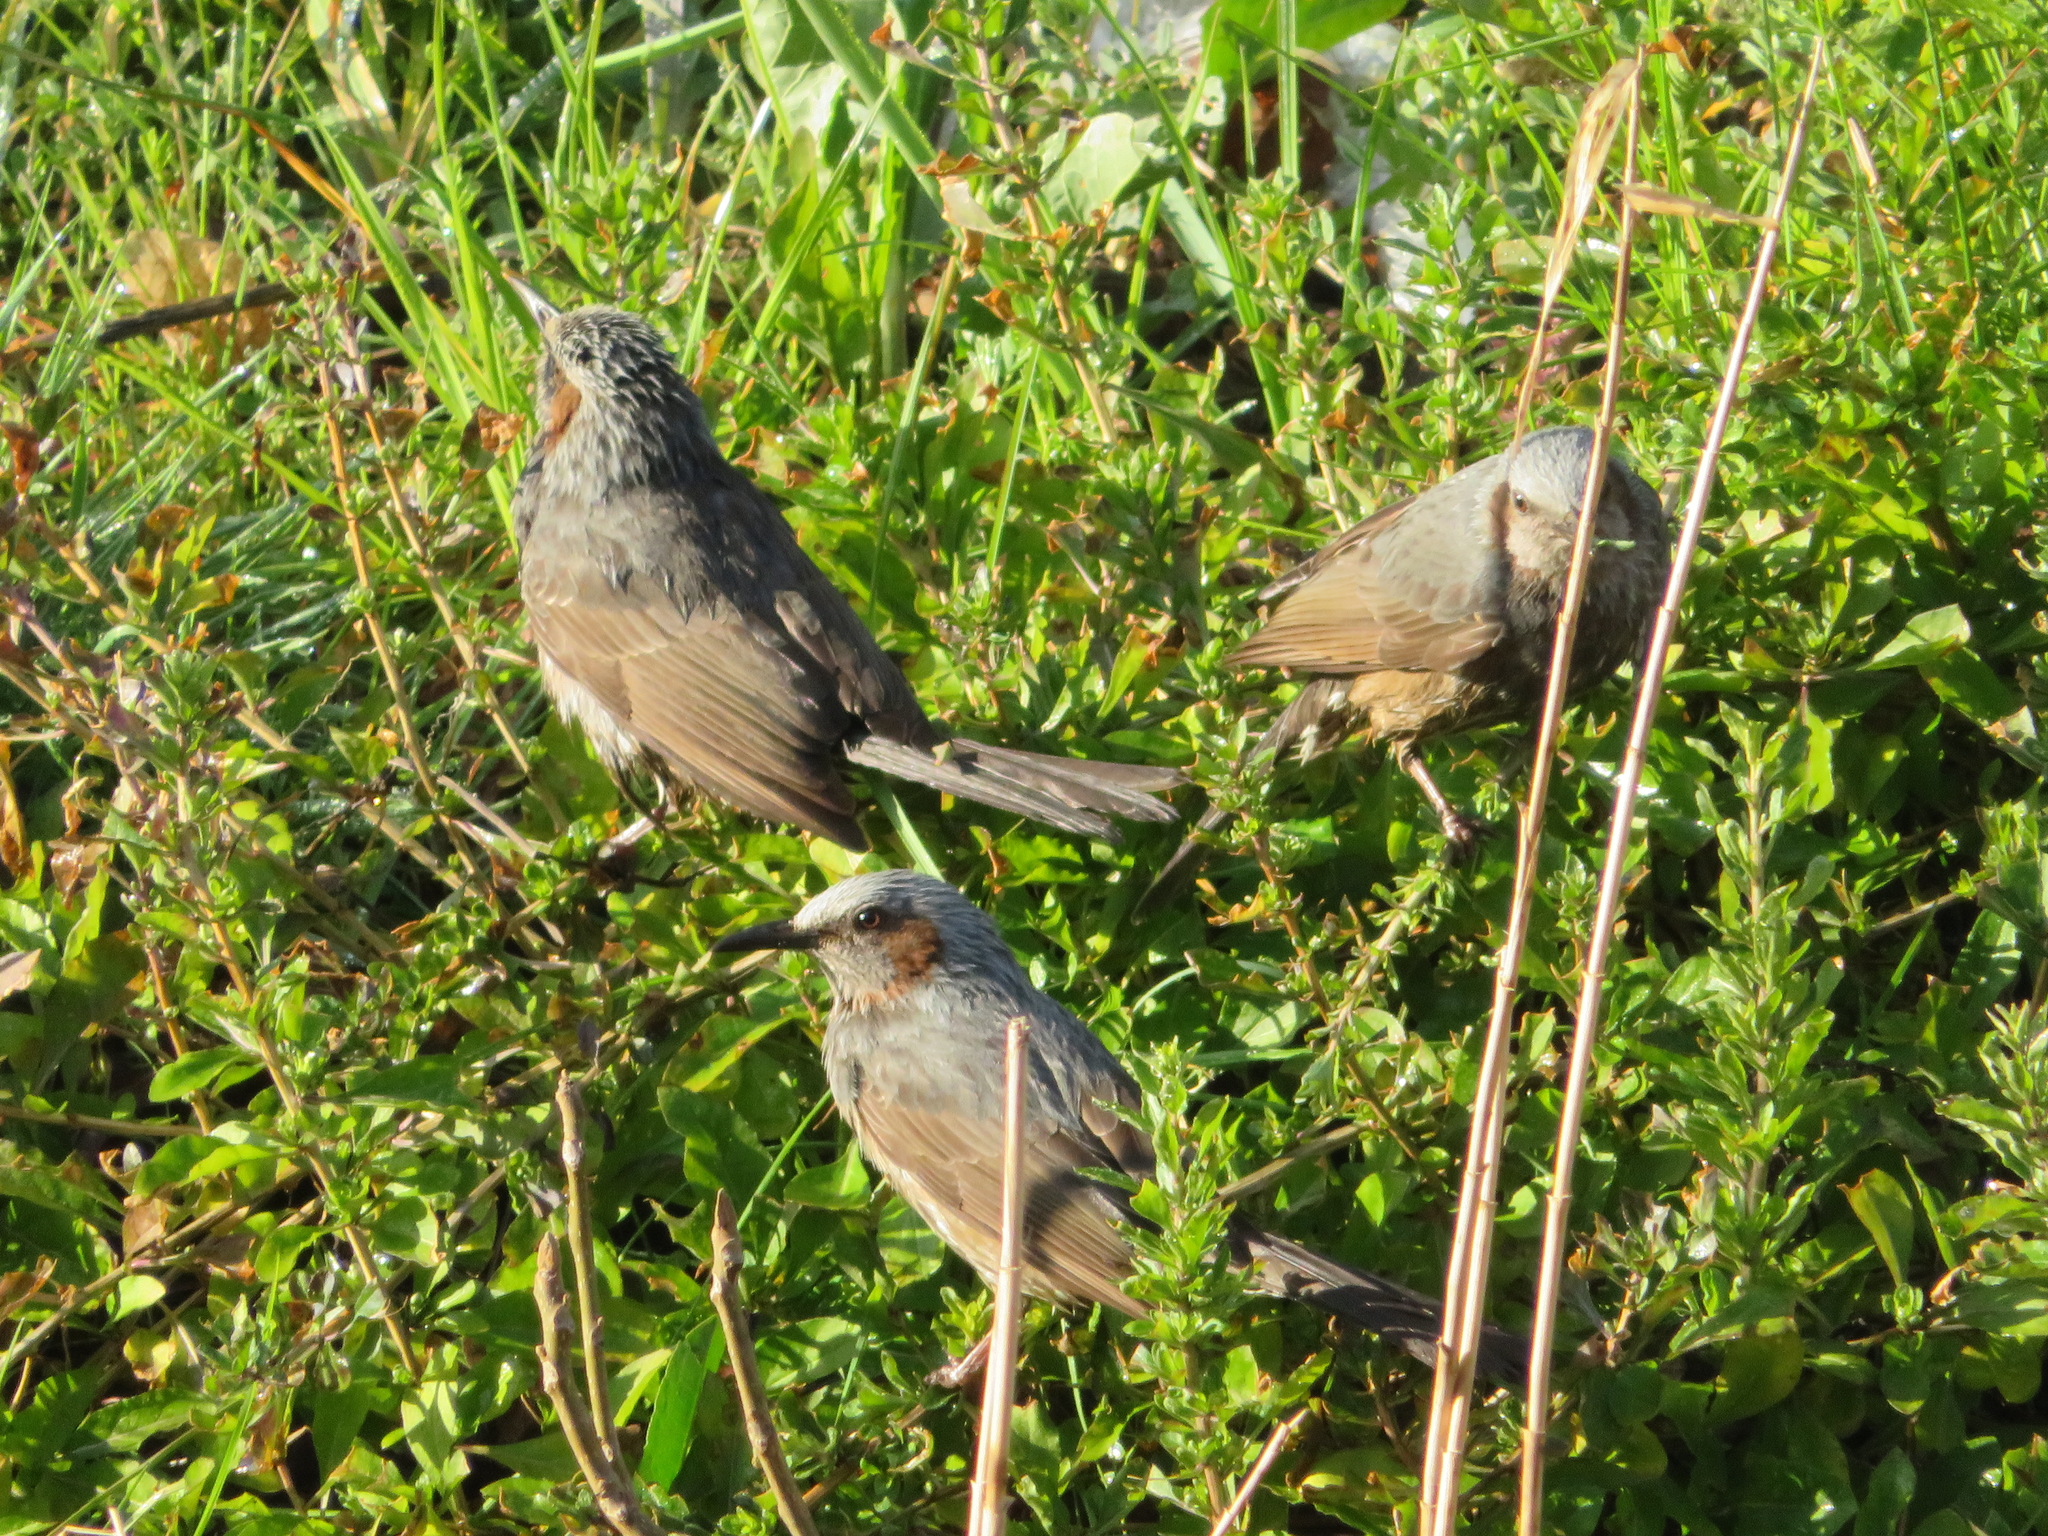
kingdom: Animalia
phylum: Chordata
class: Aves
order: Passeriformes
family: Pycnonotidae
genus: Hypsipetes
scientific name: Hypsipetes amaurotis
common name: Brown-eared bulbul
